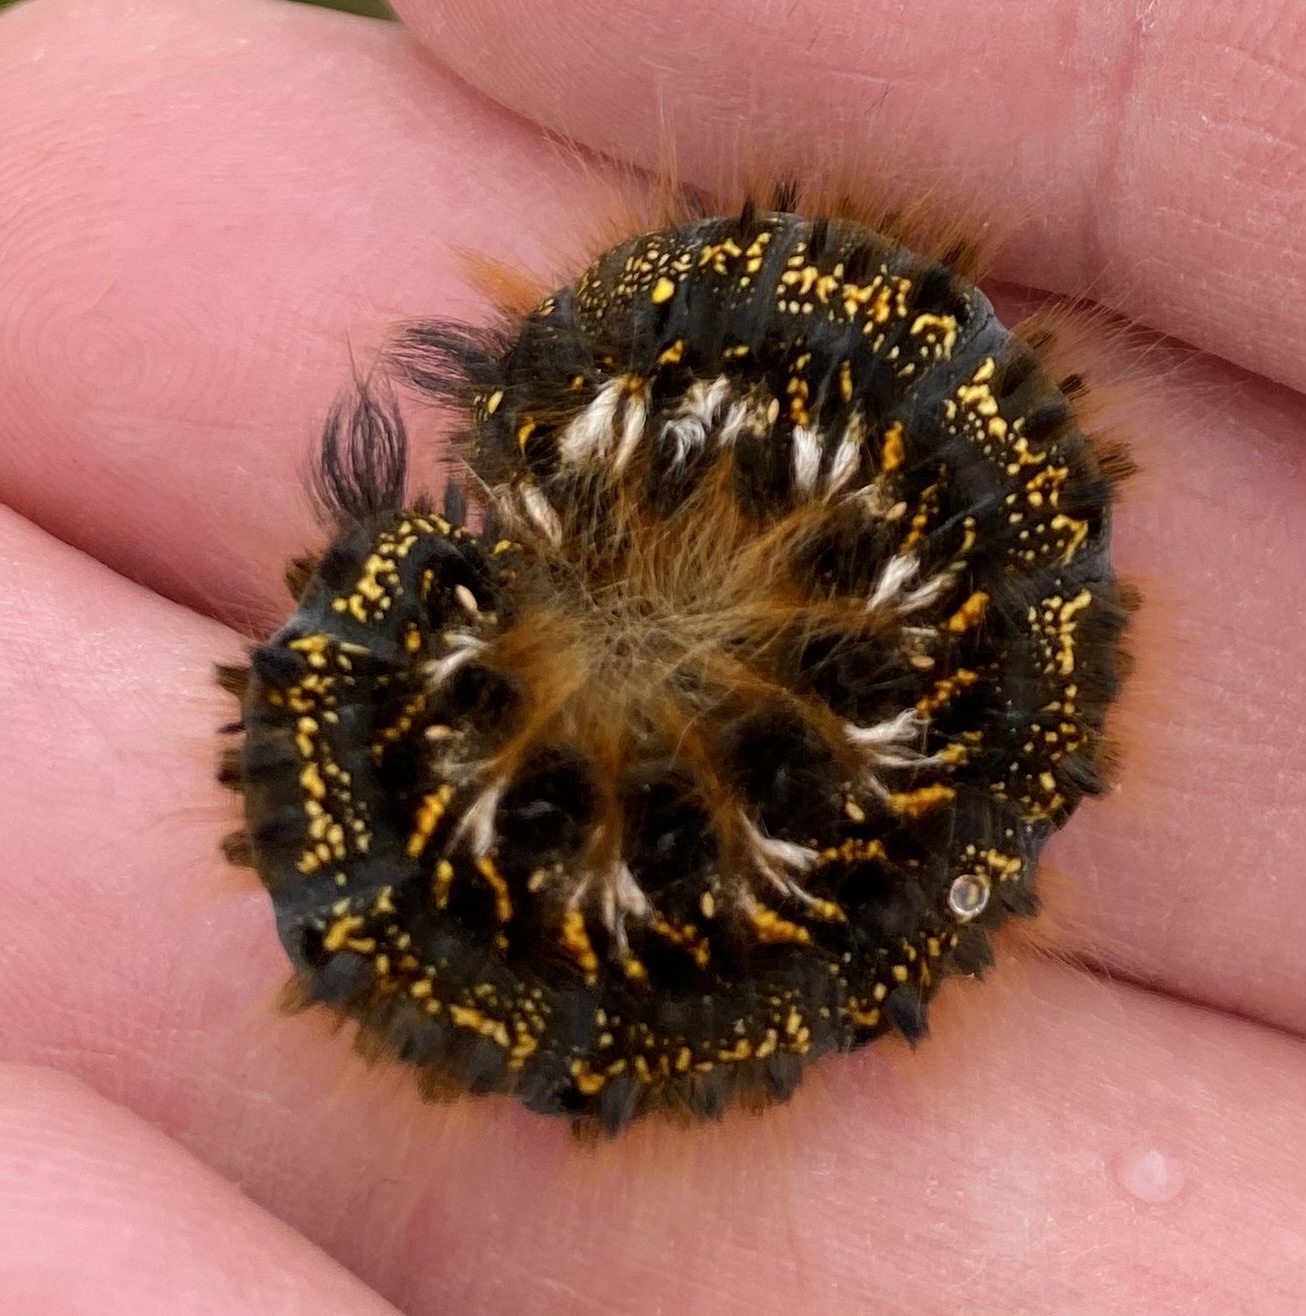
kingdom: Animalia
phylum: Arthropoda
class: Insecta
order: Lepidoptera
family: Lasiocampidae
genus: Euthrix
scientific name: Euthrix potatoria
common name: Drinker
